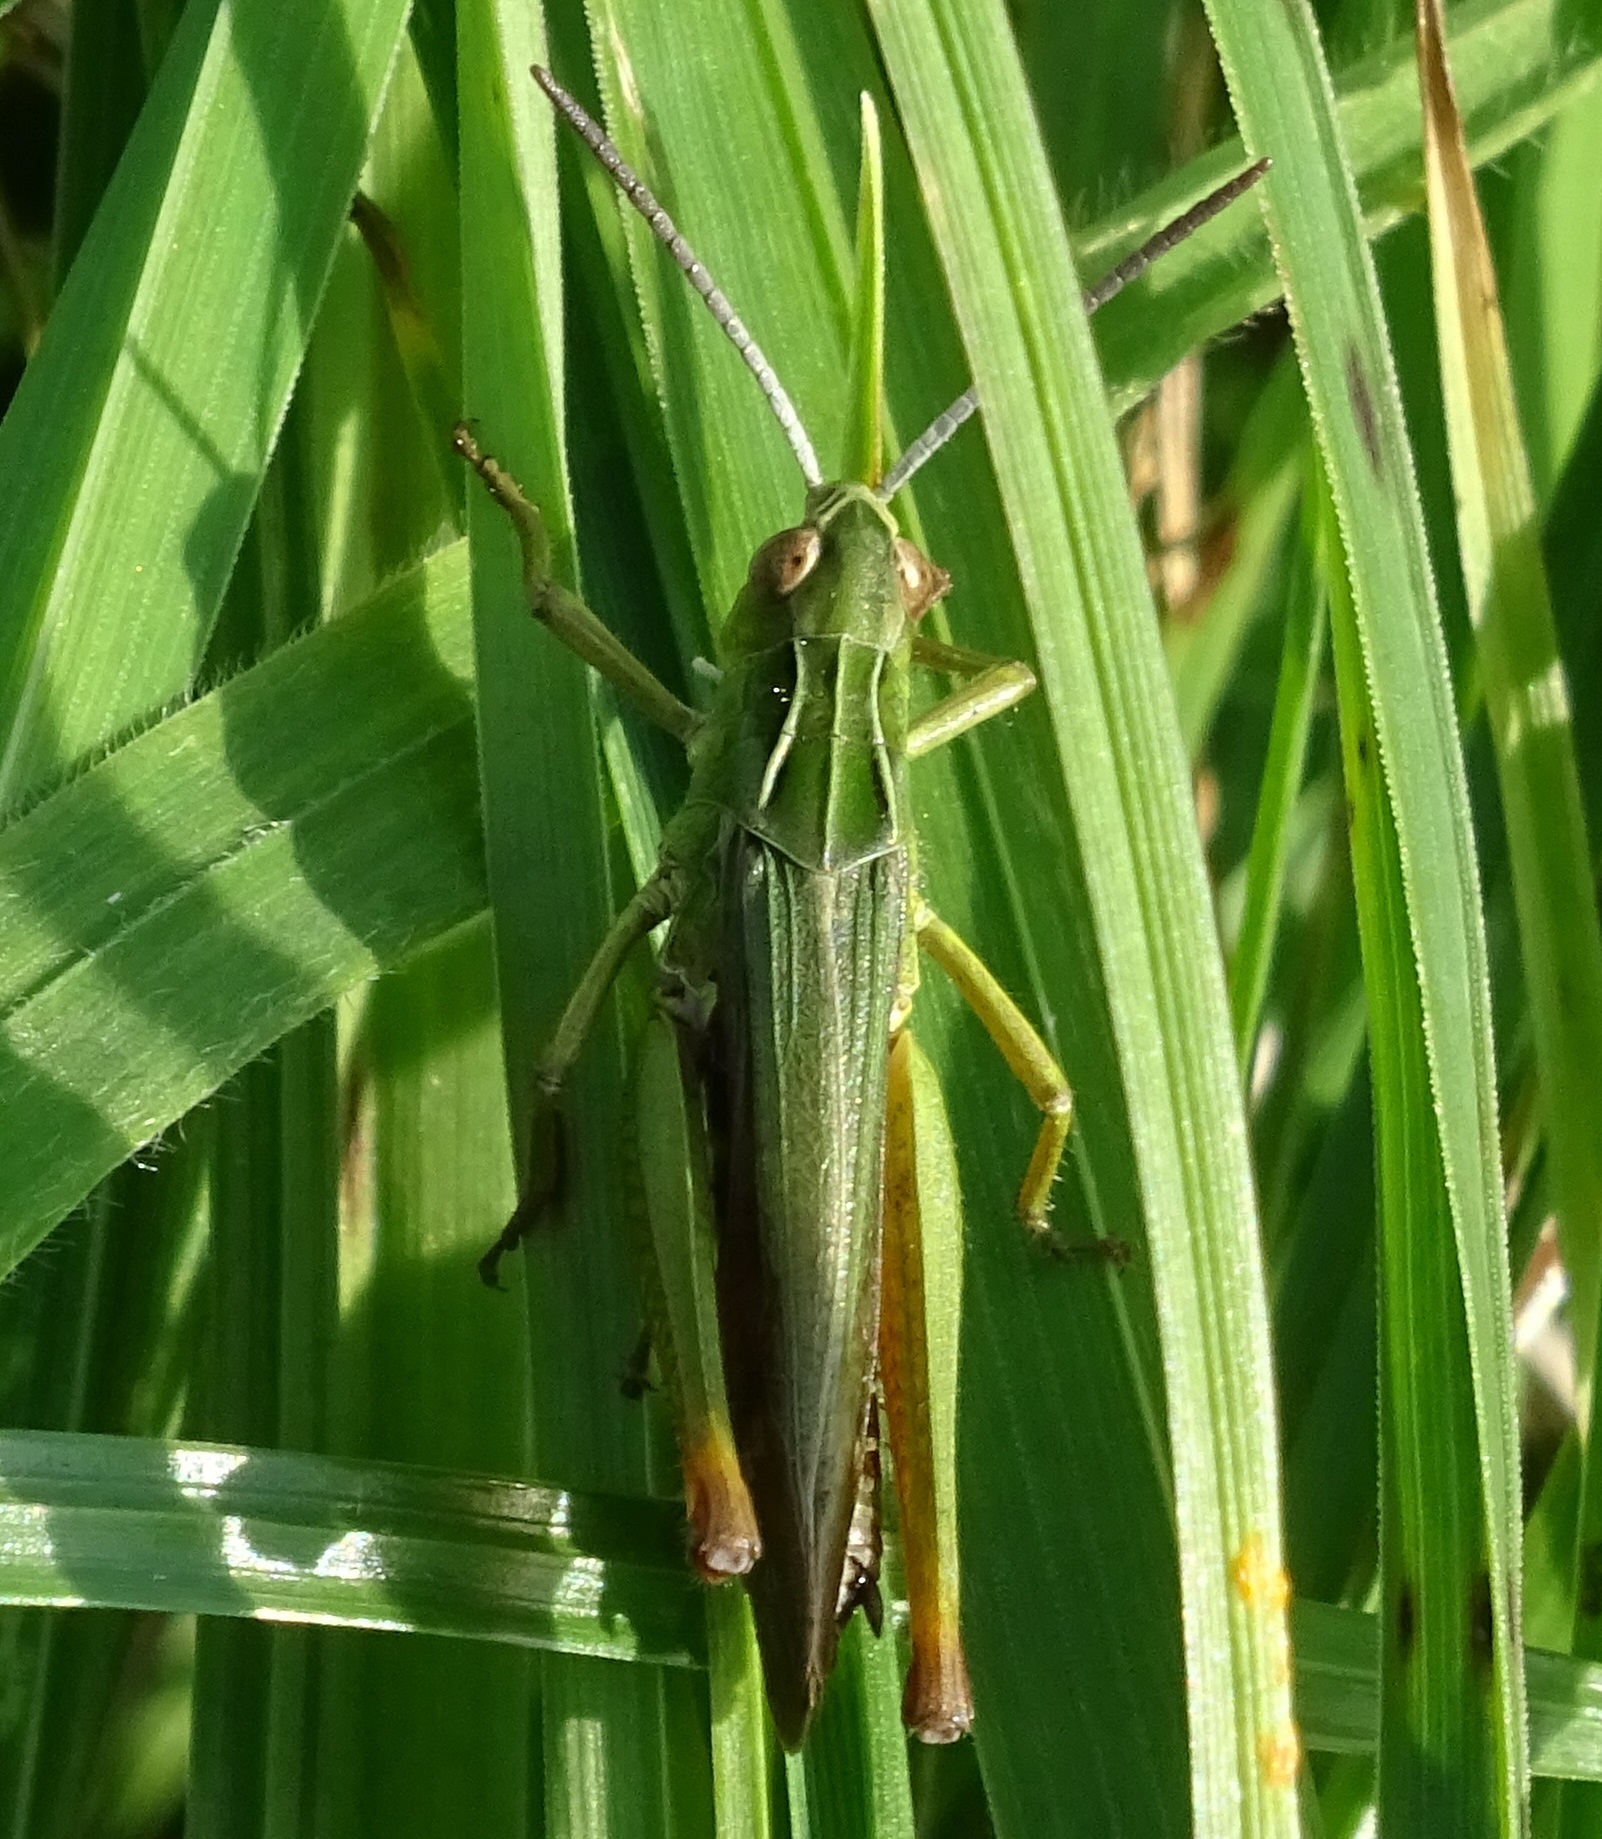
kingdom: Animalia
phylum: Arthropoda
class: Insecta
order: Orthoptera
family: Acrididae
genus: Omocestus
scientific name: Omocestus viridulus
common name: Common green grasshopper
